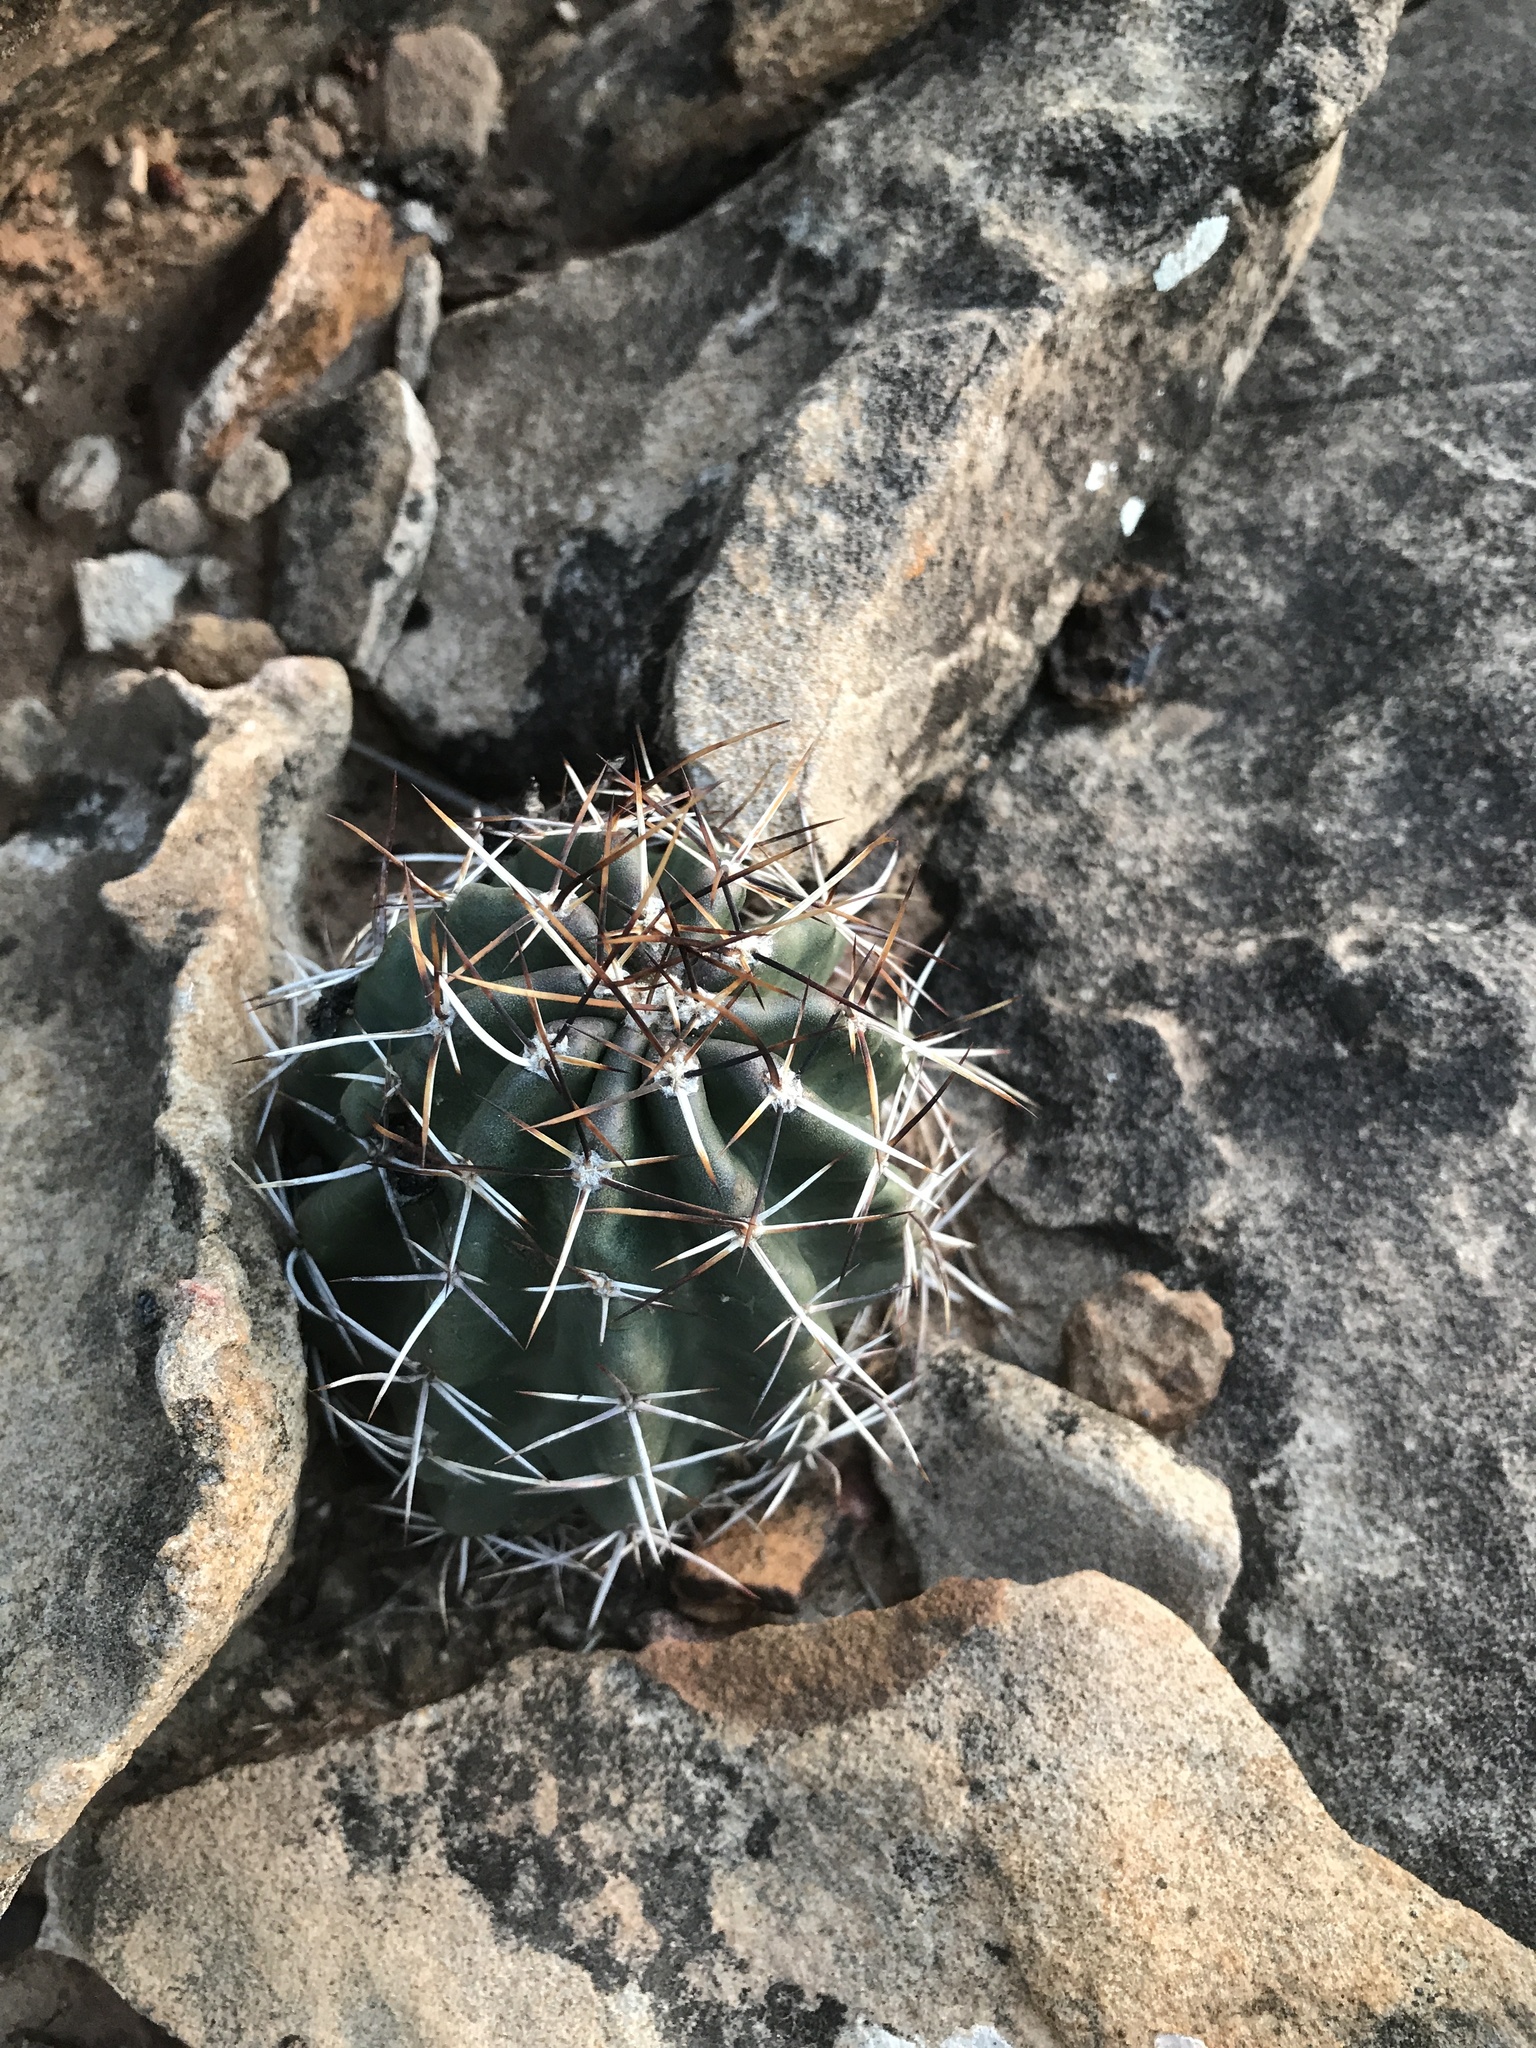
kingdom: Plantae
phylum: Tracheophyta
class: Magnoliopsida
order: Caryophyllales
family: Cactaceae
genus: Echinocereus
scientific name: Echinocereus fendleri
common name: Fendler's hedgehog cactus
